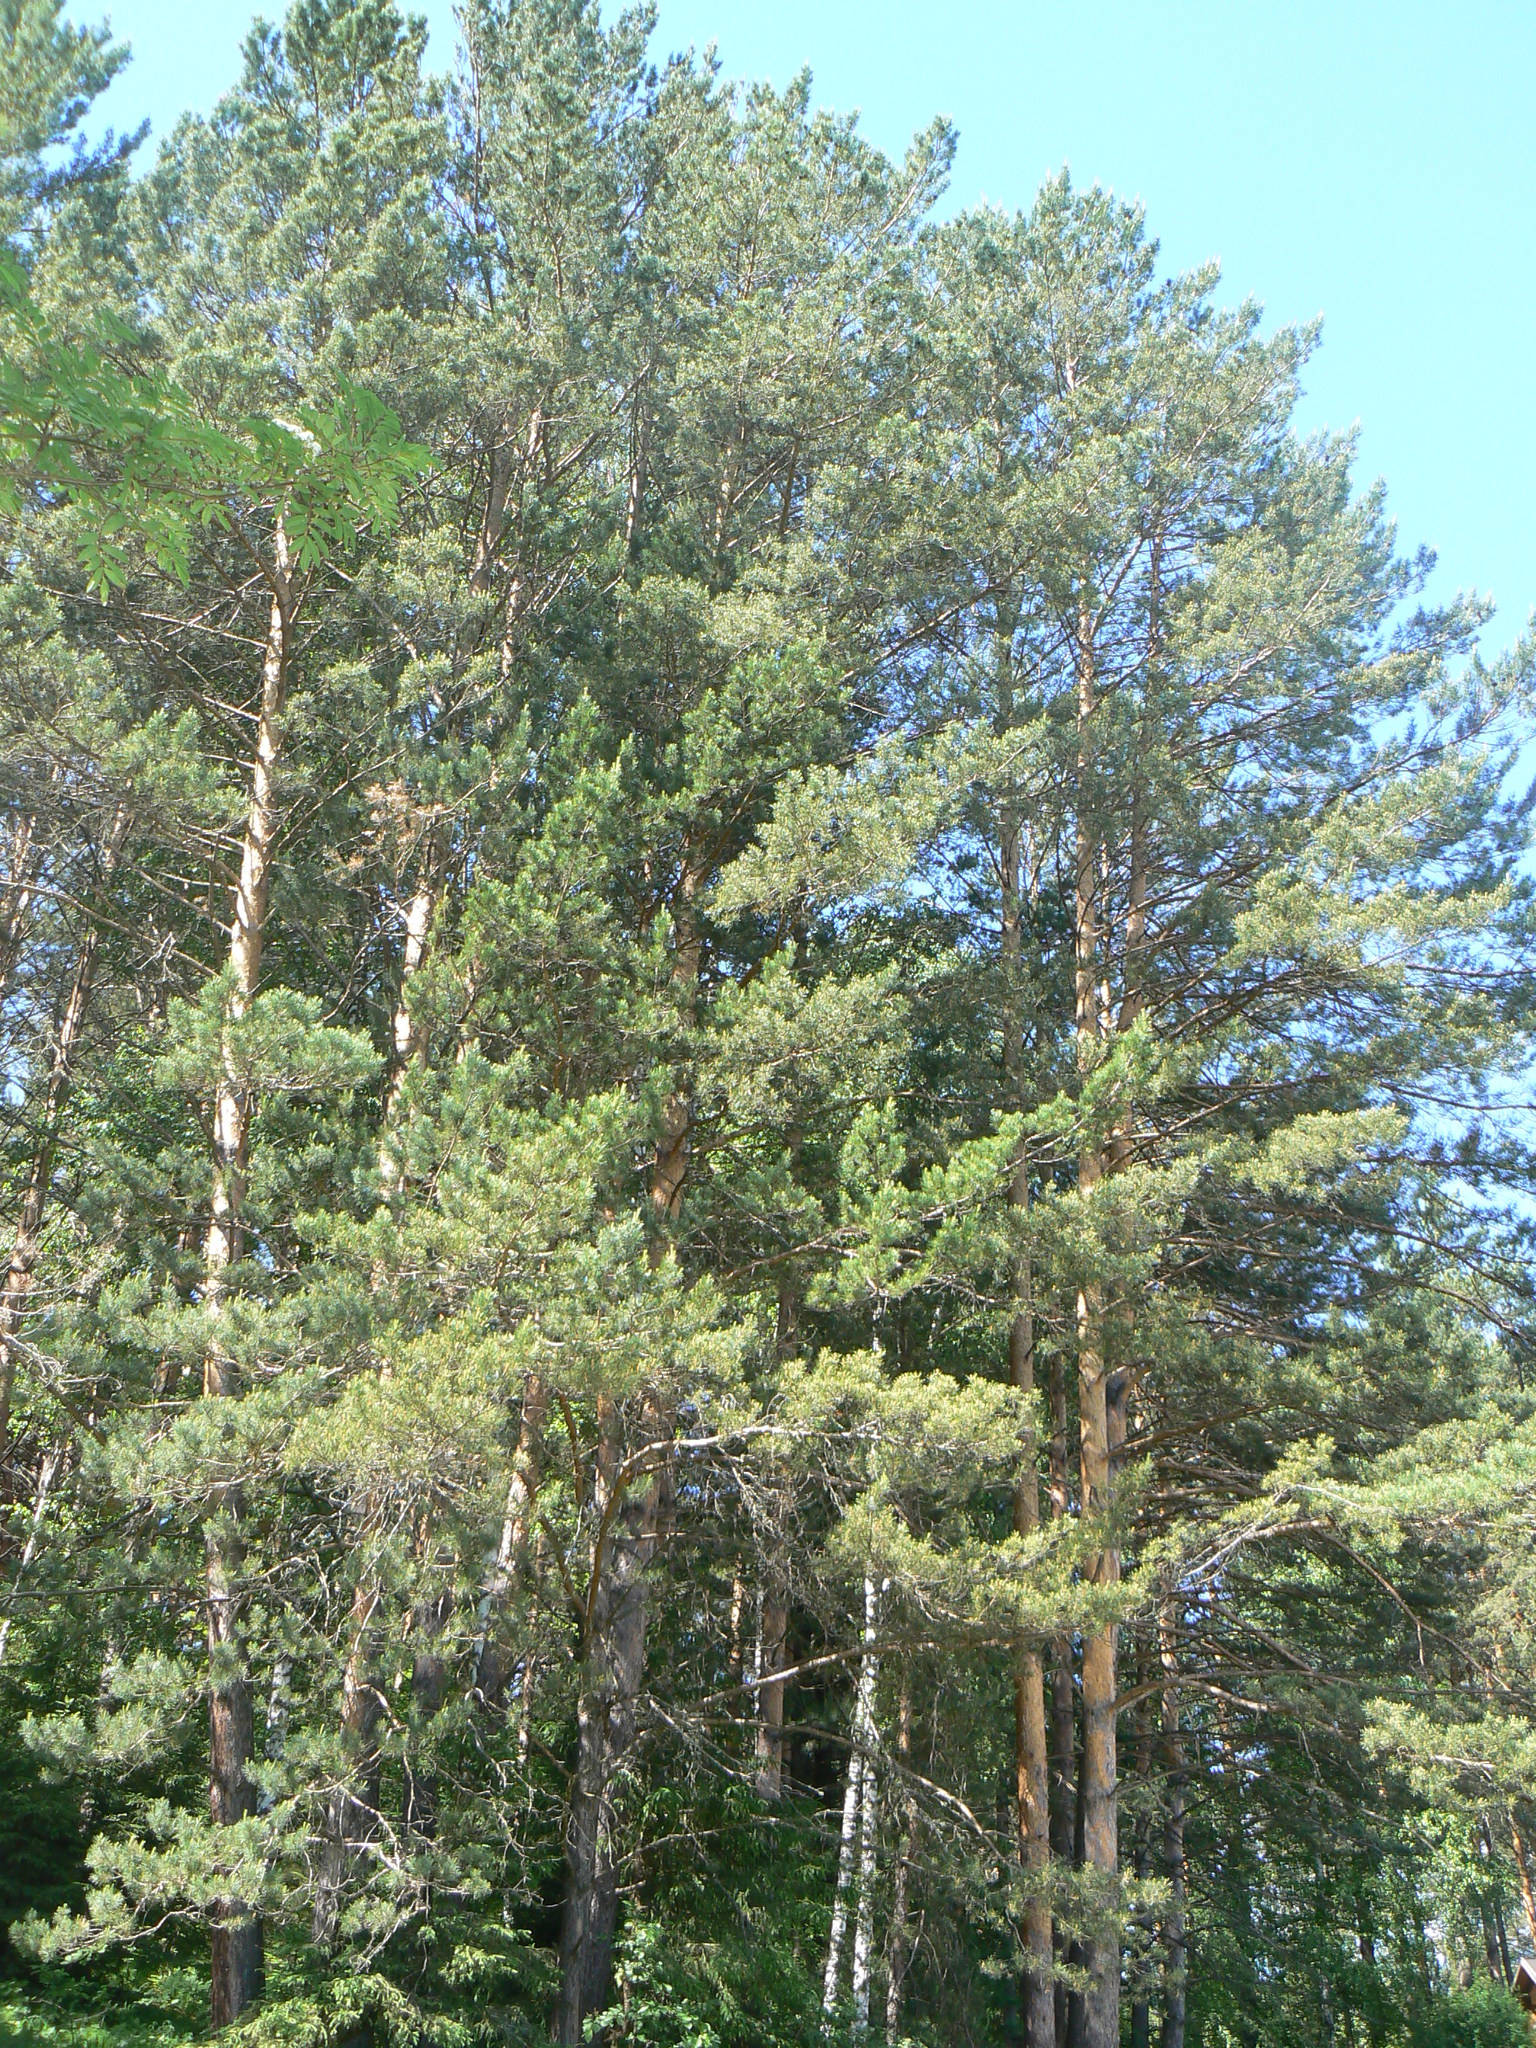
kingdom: Plantae
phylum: Tracheophyta
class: Pinopsida
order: Pinales
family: Pinaceae
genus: Pinus
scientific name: Pinus sylvestris
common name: Scots pine
